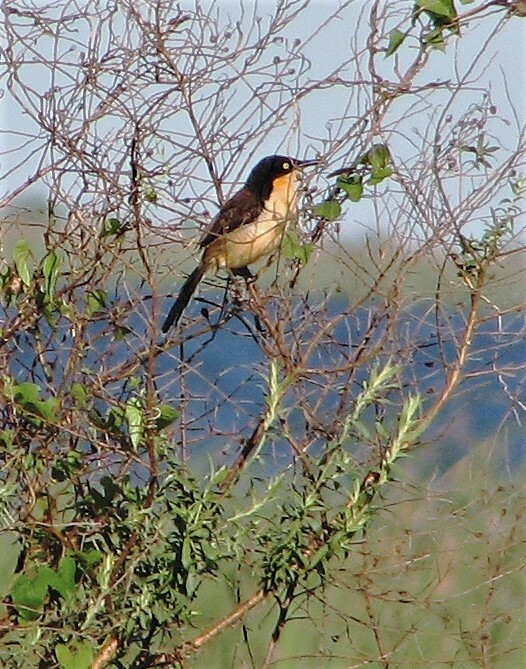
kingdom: Animalia
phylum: Chordata
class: Aves
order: Passeriformes
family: Donacobiidae
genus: Donacobius
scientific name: Donacobius atricapilla
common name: Black-capped donacobius
